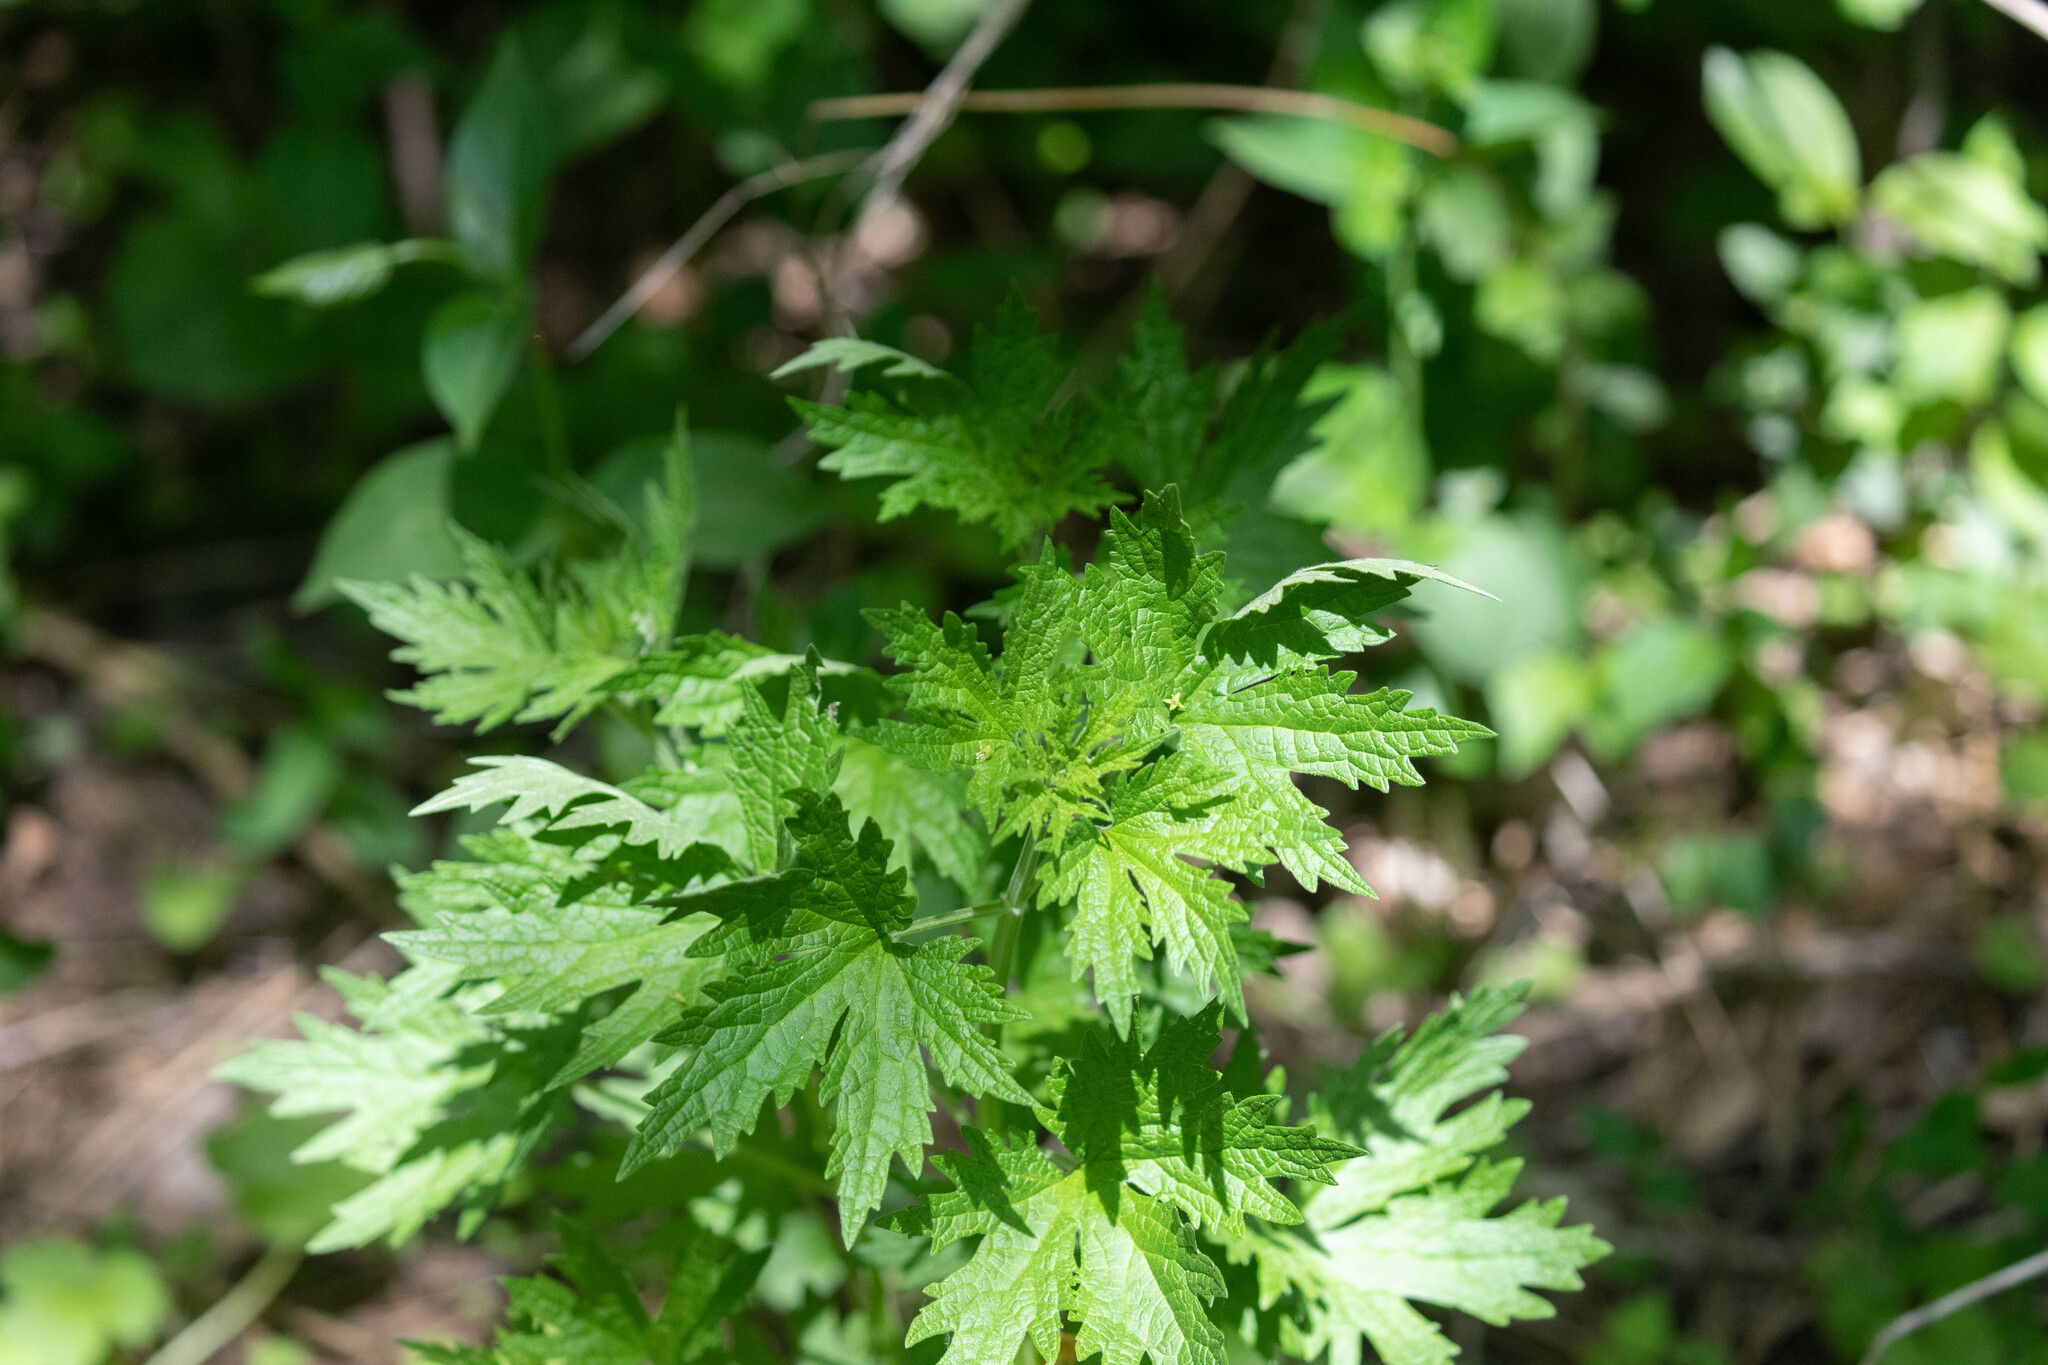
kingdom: Plantae
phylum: Tracheophyta
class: Magnoliopsida
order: Lamiales
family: Lamiaceae
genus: Leonurus
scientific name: Leonurus cardiaca
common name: Motherwort
